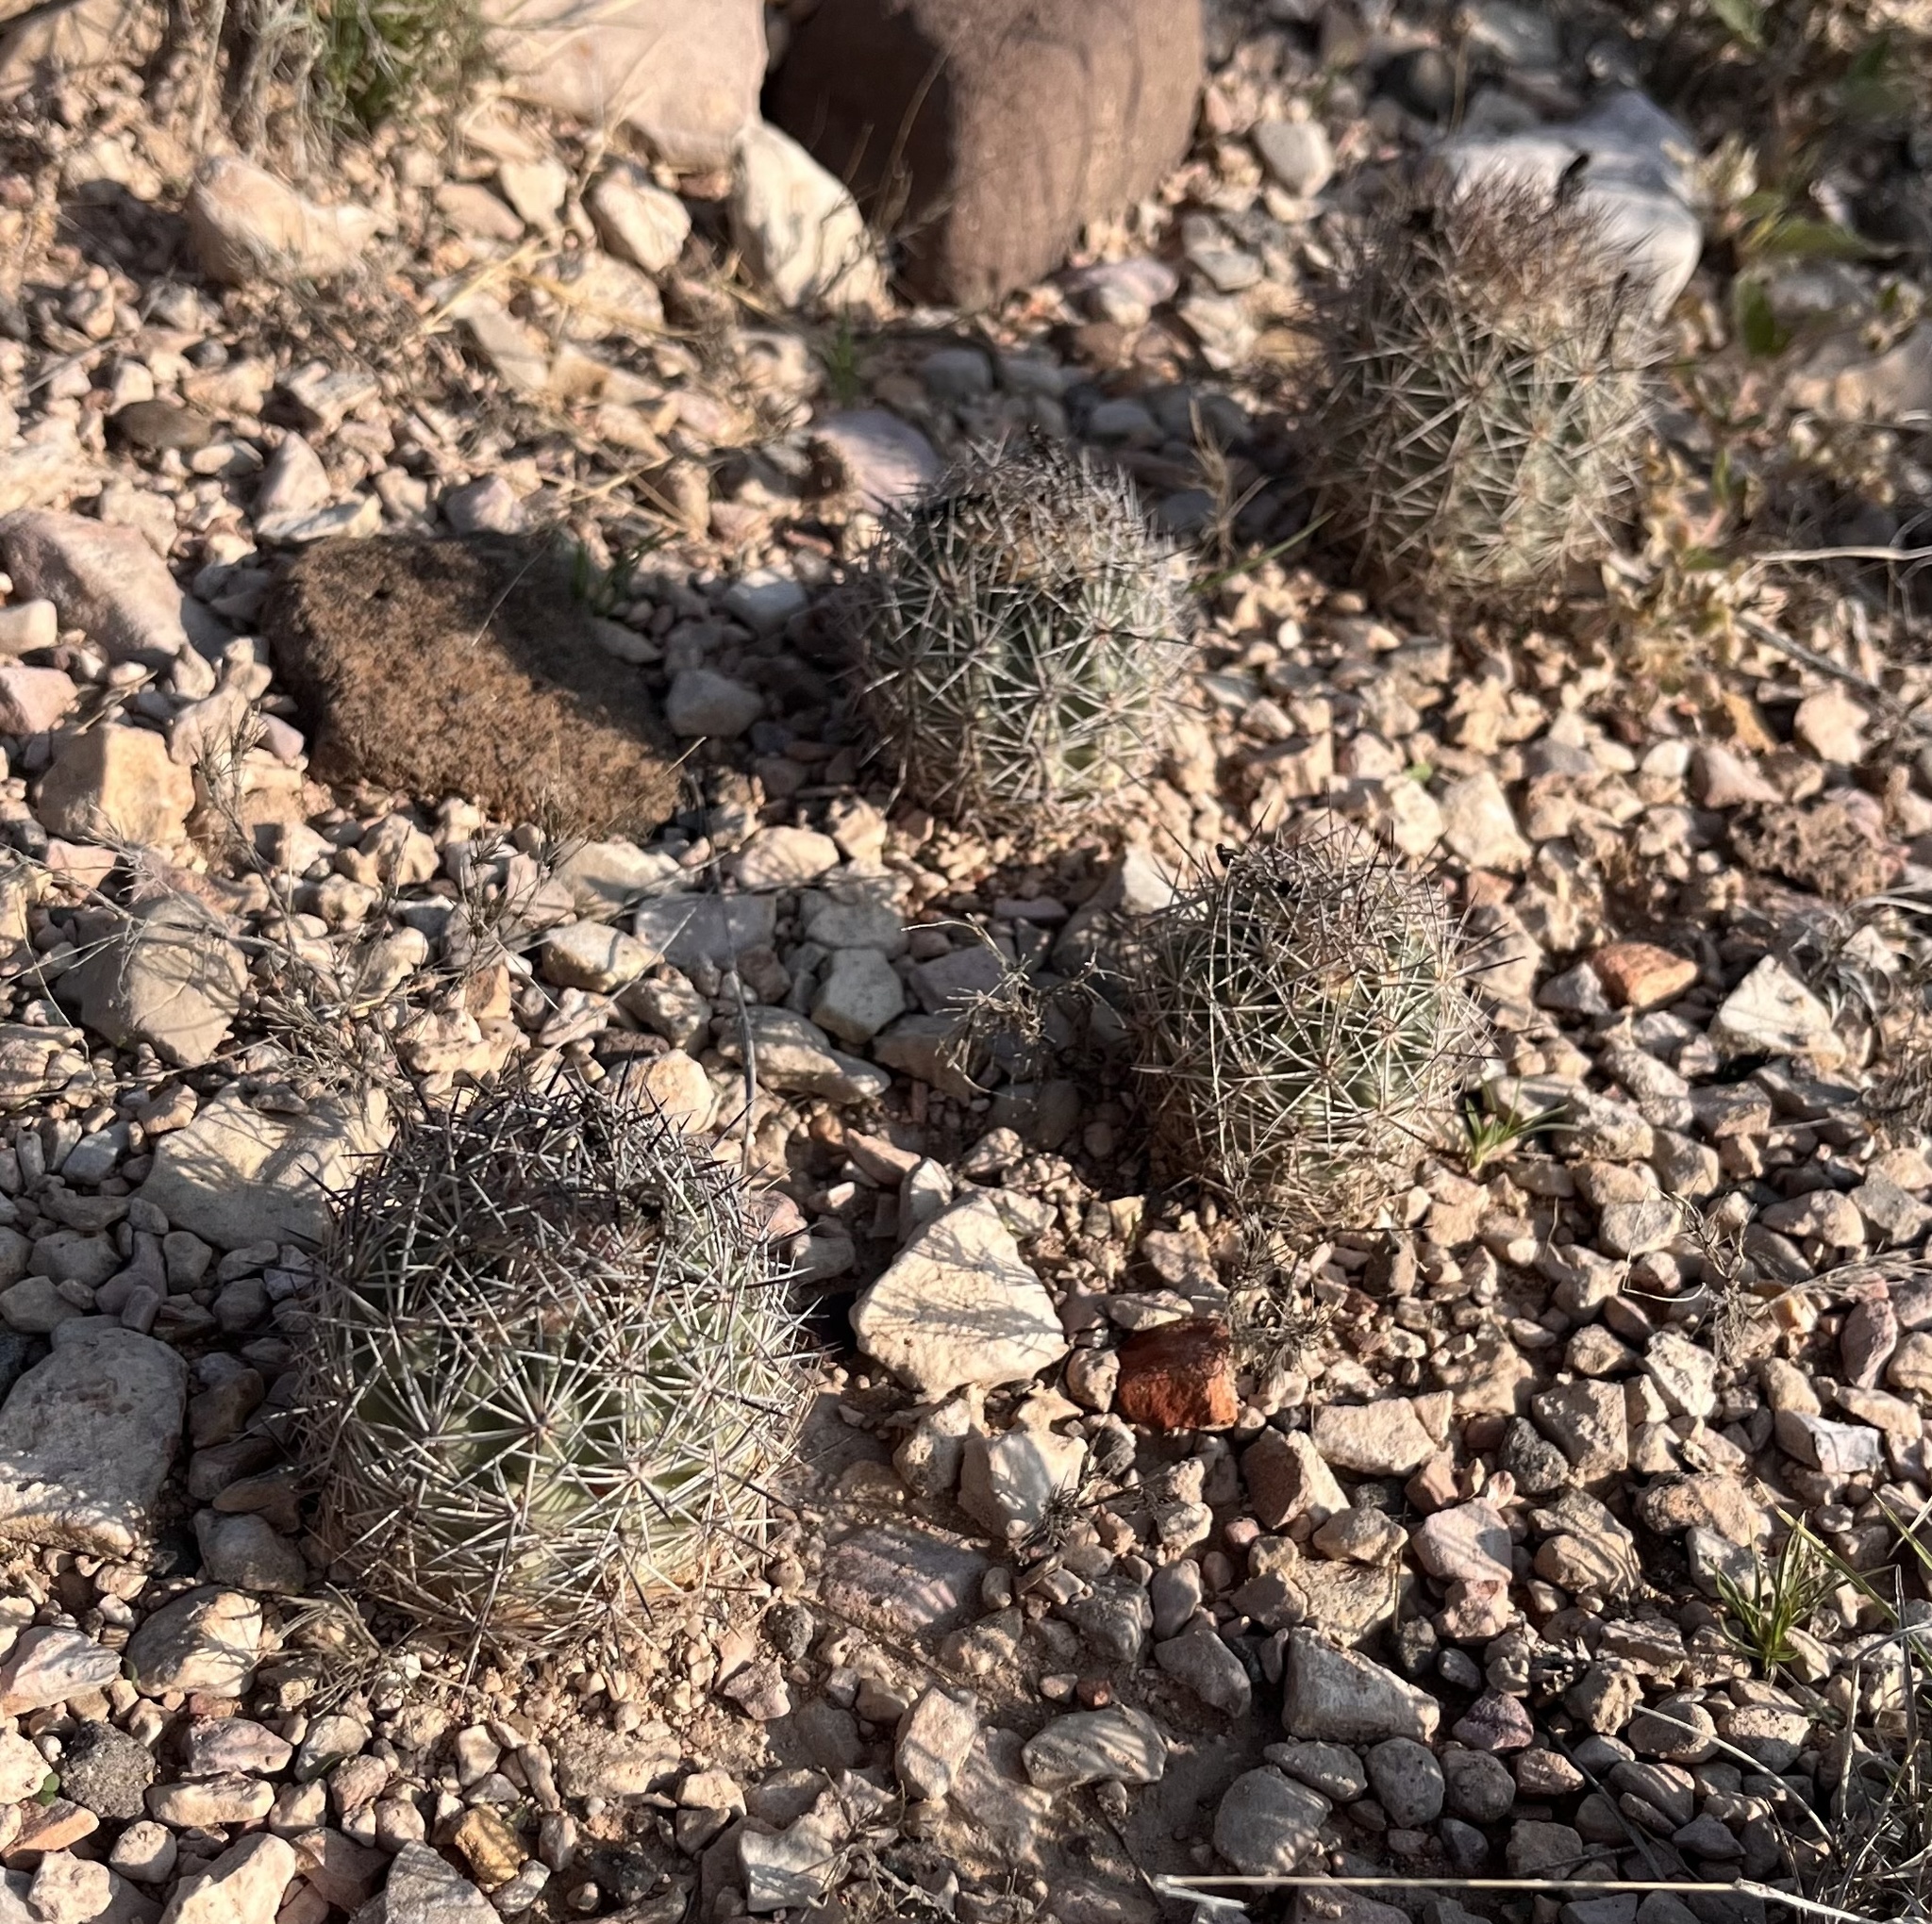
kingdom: Plantae
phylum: Tracheophyta
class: Magnoliopsida
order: Caryophyllales
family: Cactaceae
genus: Sclerocactus
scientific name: Sclerocactus warnockii
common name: Pineapple cactus
